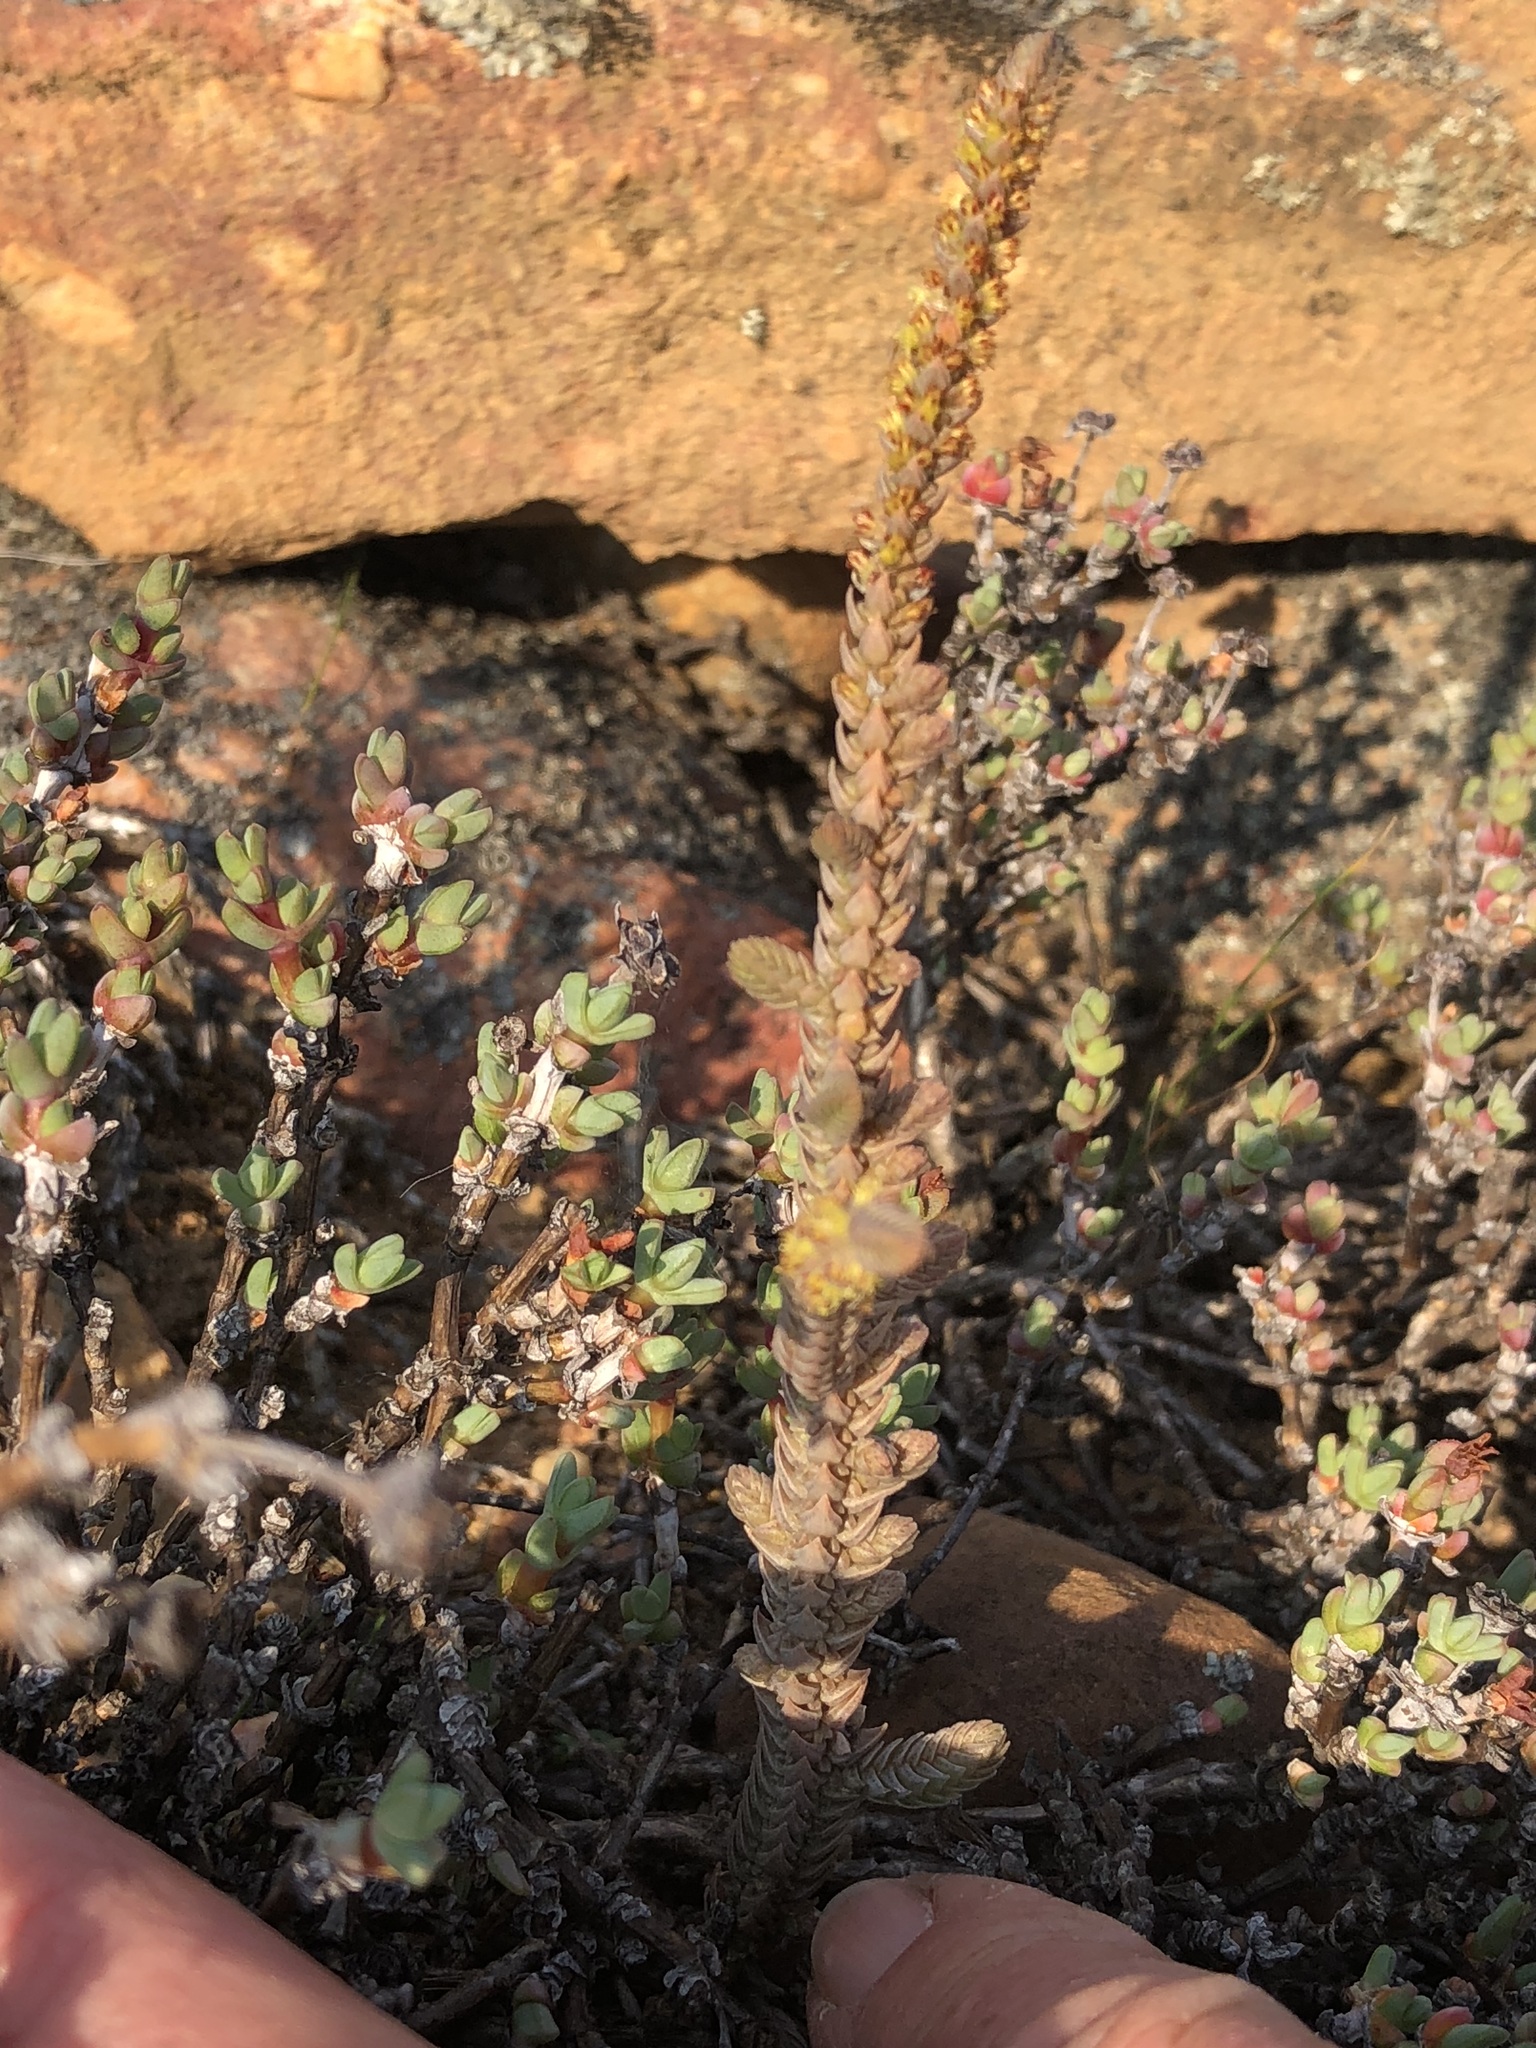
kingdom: Plantae
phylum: Tracheophyta
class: Magnoliopsida
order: Saxifragales
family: Crassulaceae
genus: Crassula
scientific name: Crassula muscosa
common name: Toy-cypress
